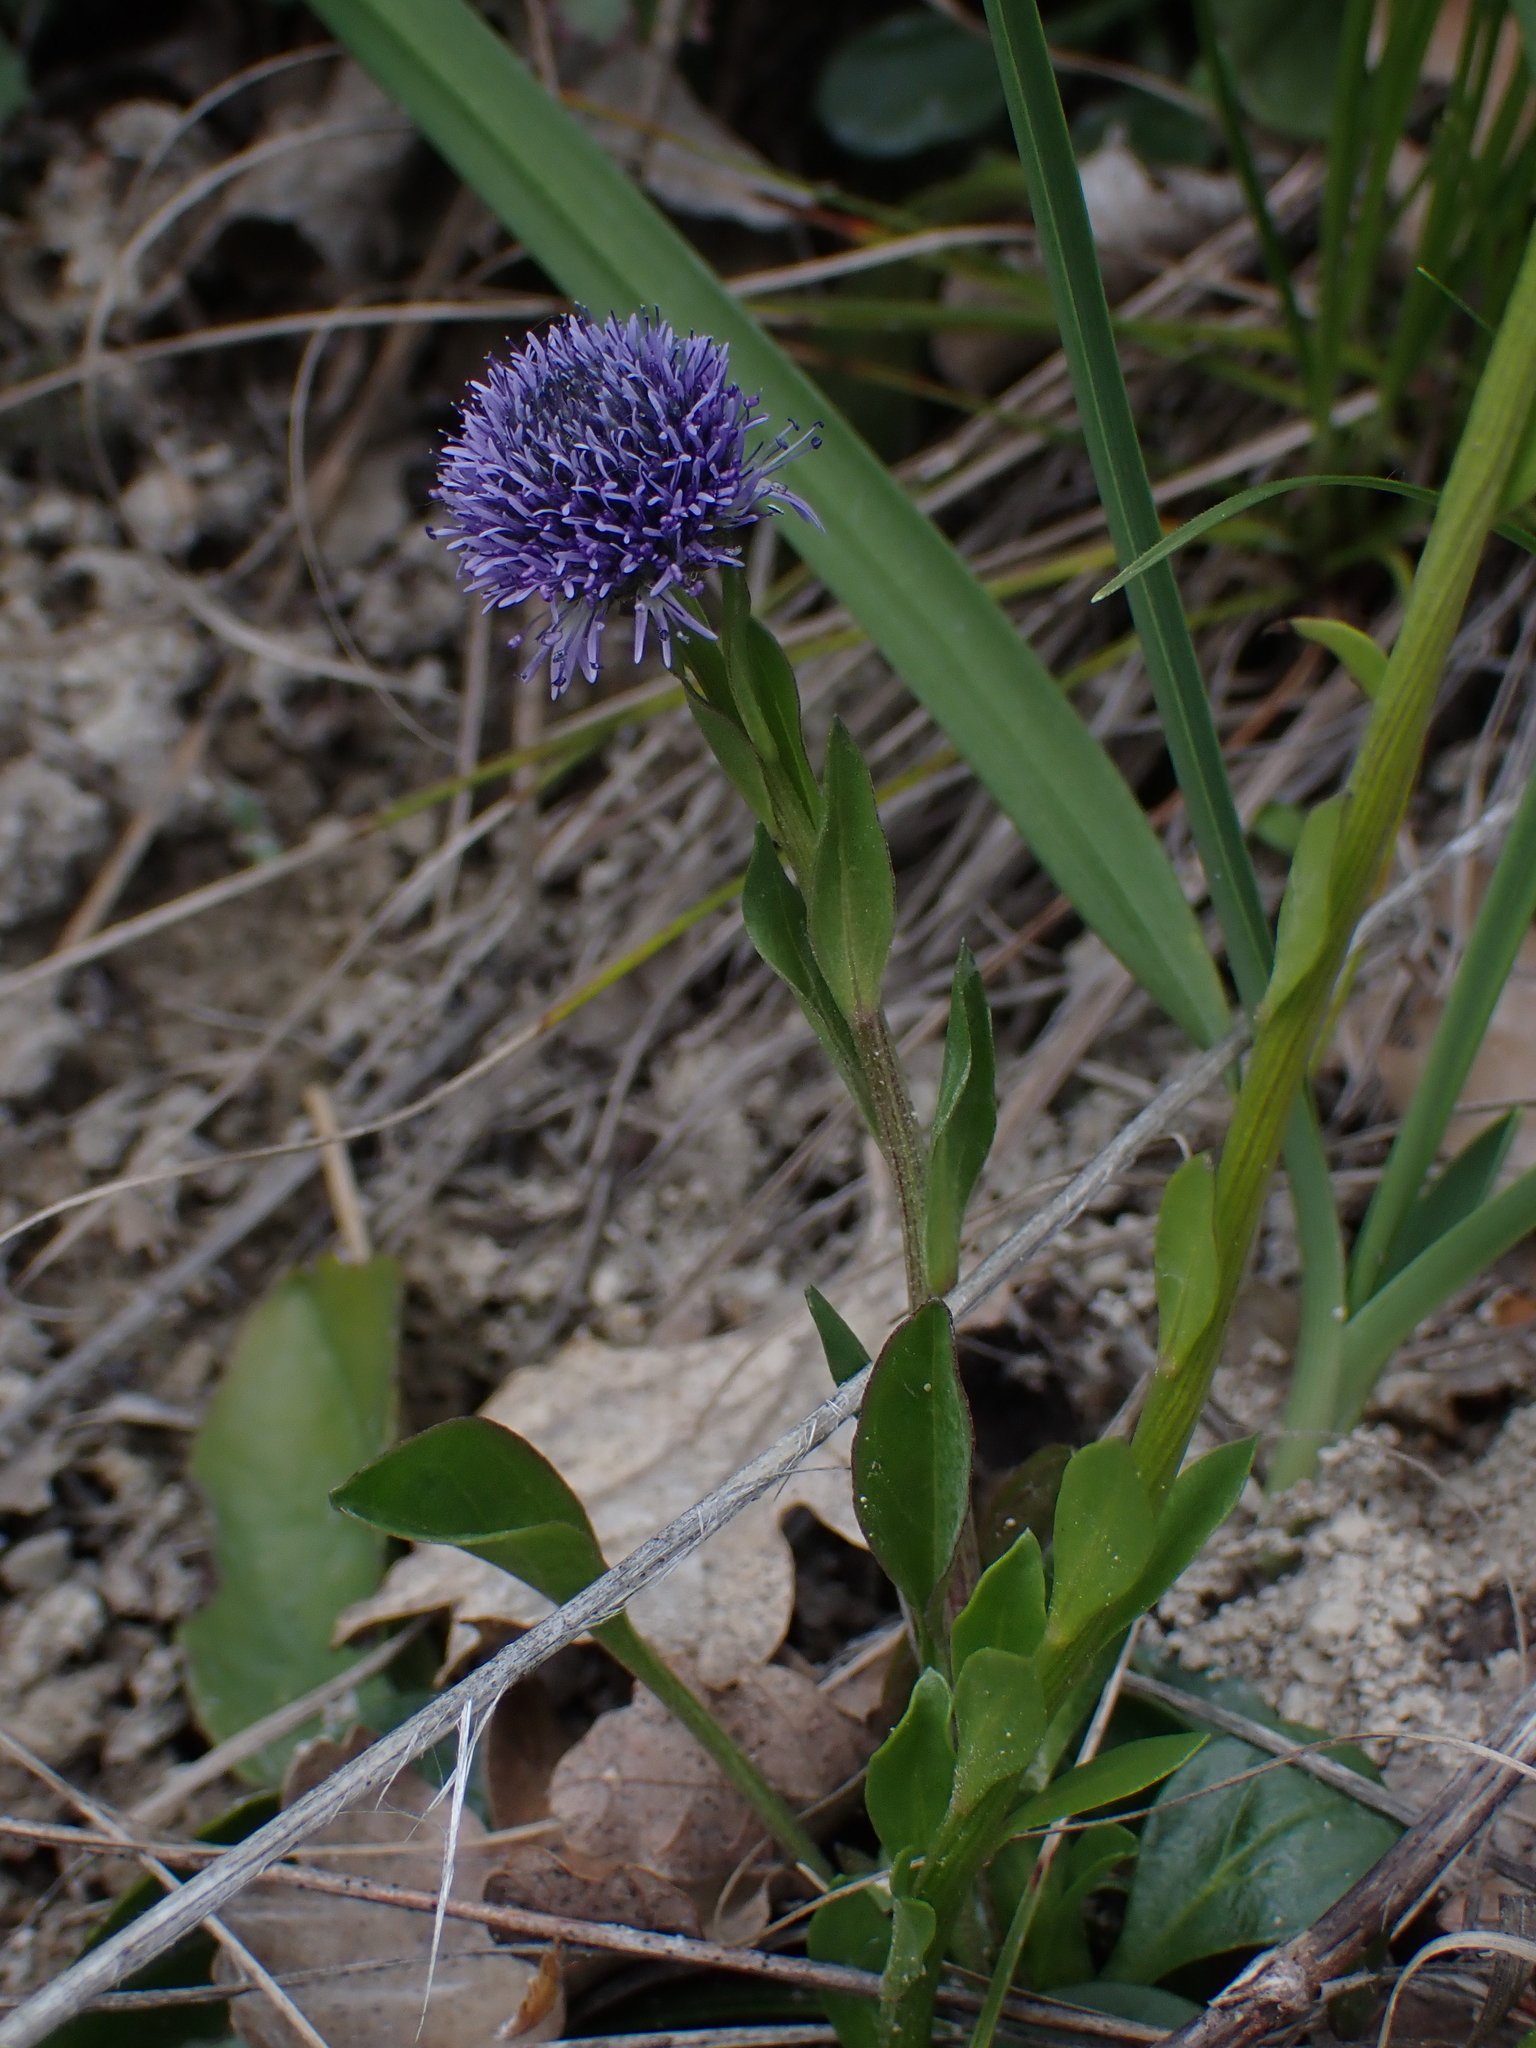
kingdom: Plantae
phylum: Tracheophyta
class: Magnoliopsida
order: Lamiales
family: Plantaginaceae
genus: Globularia
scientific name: Globularia bisnagarica
